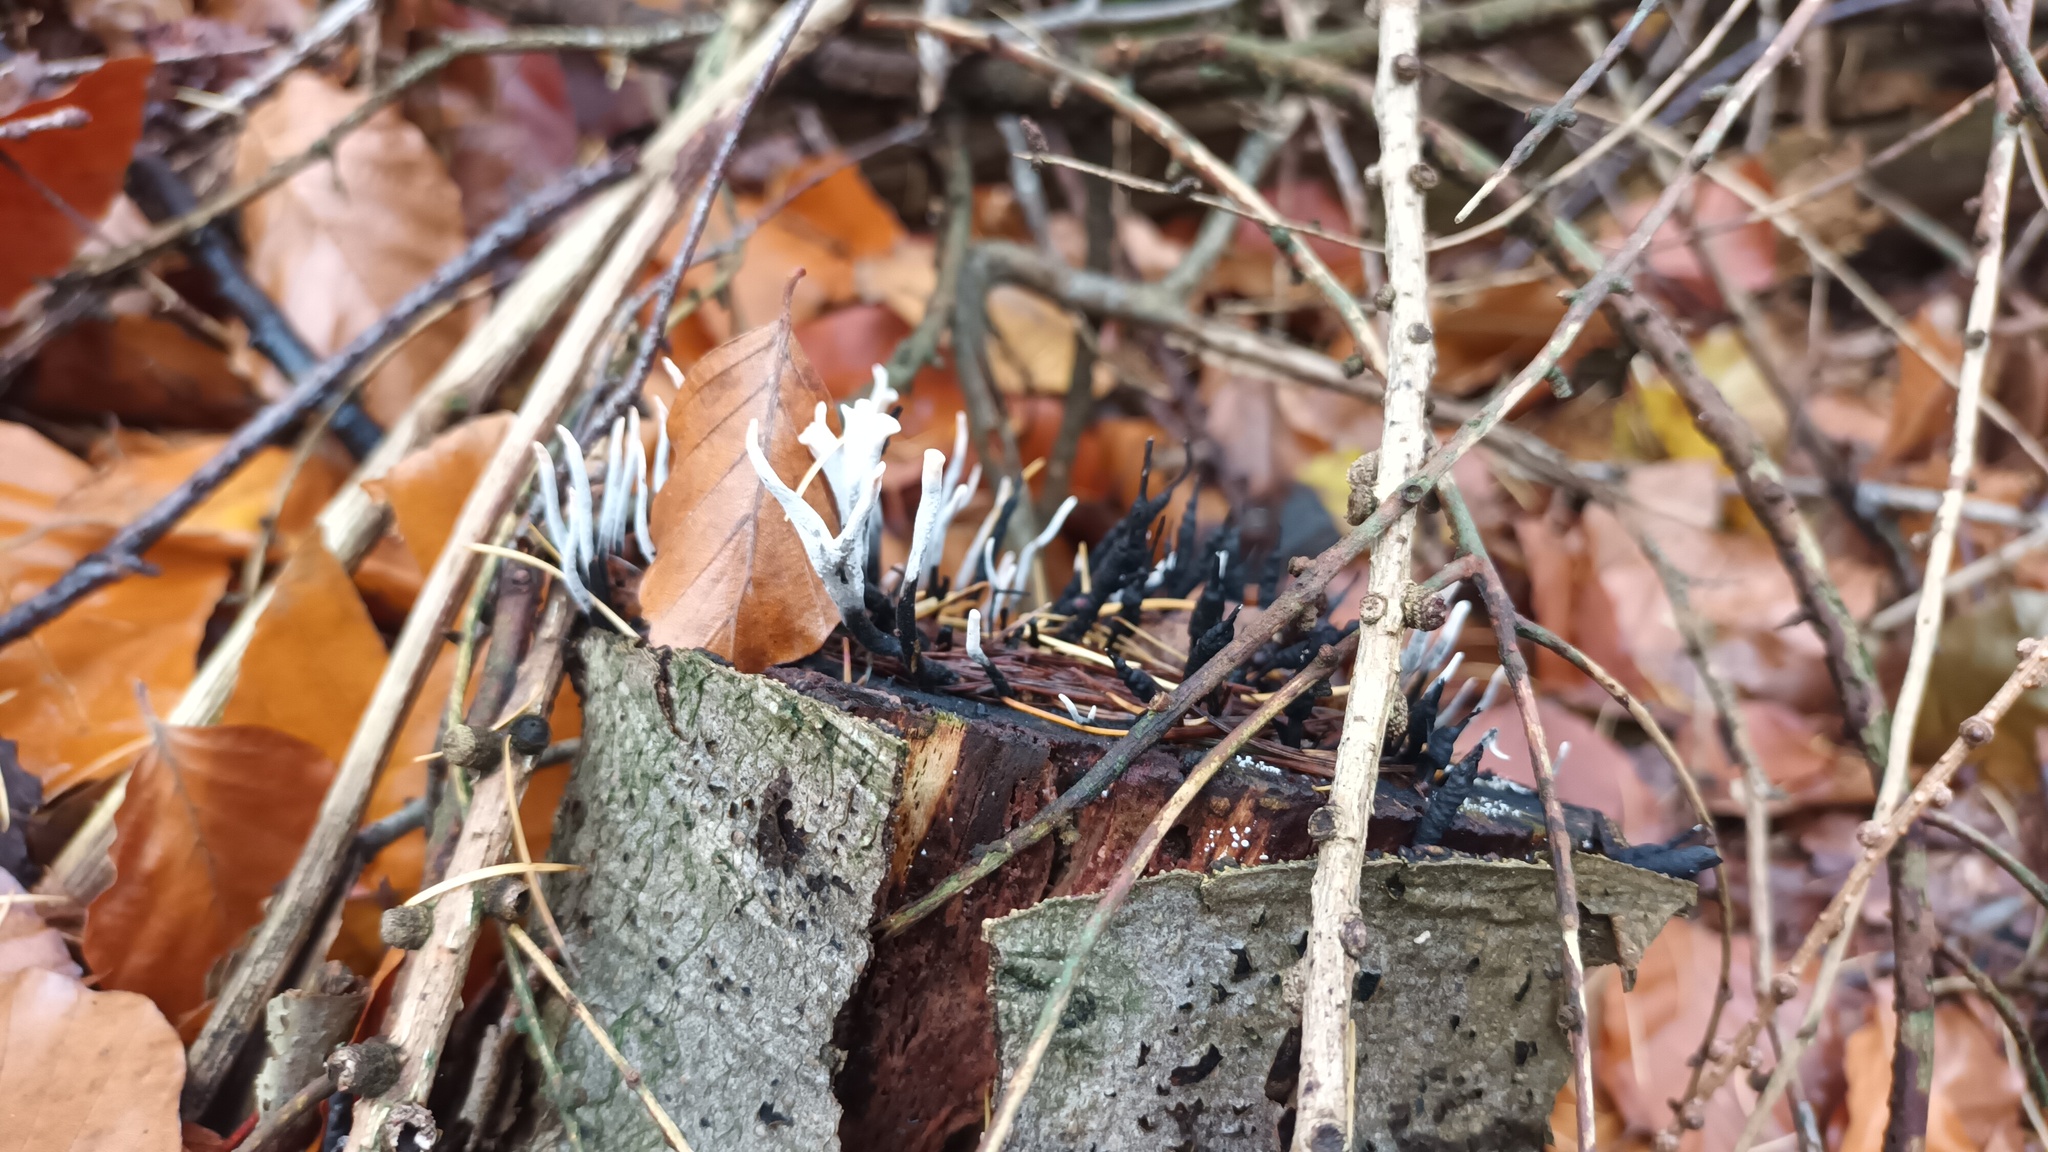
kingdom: Fungi
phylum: Ascomycota
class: Sordariomycetes
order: Xylariales
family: Xylariaceae
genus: Xylaria
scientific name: Xylaria hypoxylon
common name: Candle-snuff fungus
